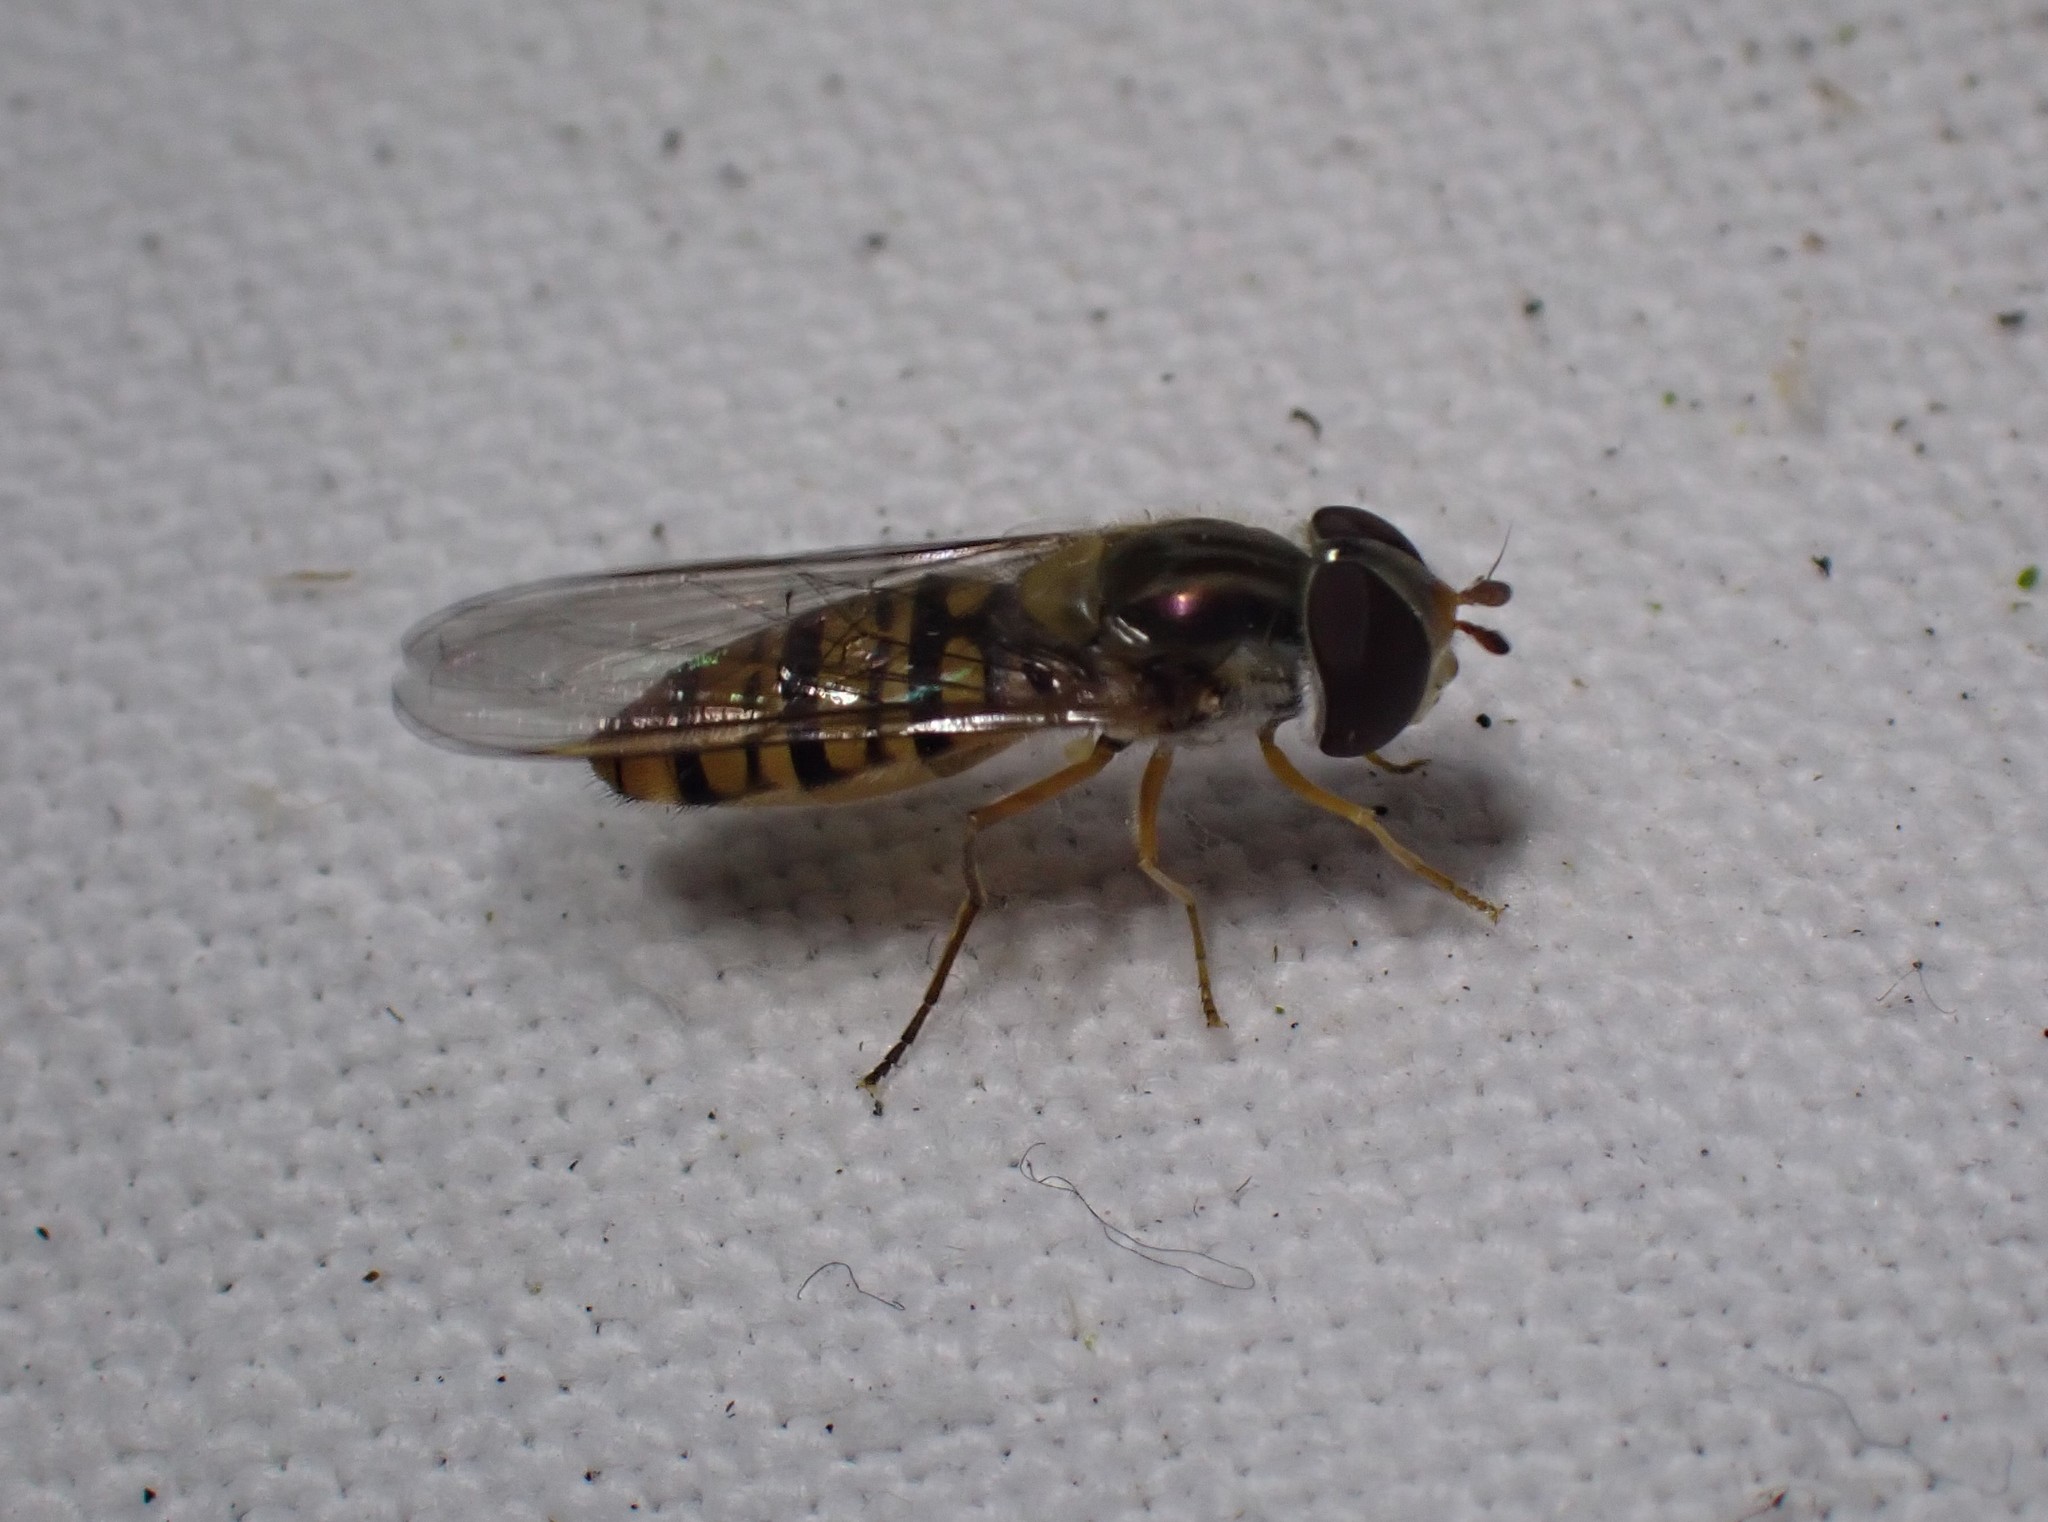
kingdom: Animalia
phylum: Arthropoda
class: Insecta
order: Diptera
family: Syrphidae
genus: Episyrphus
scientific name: Episyrphus balteatus
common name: Marmalade hoverfly
